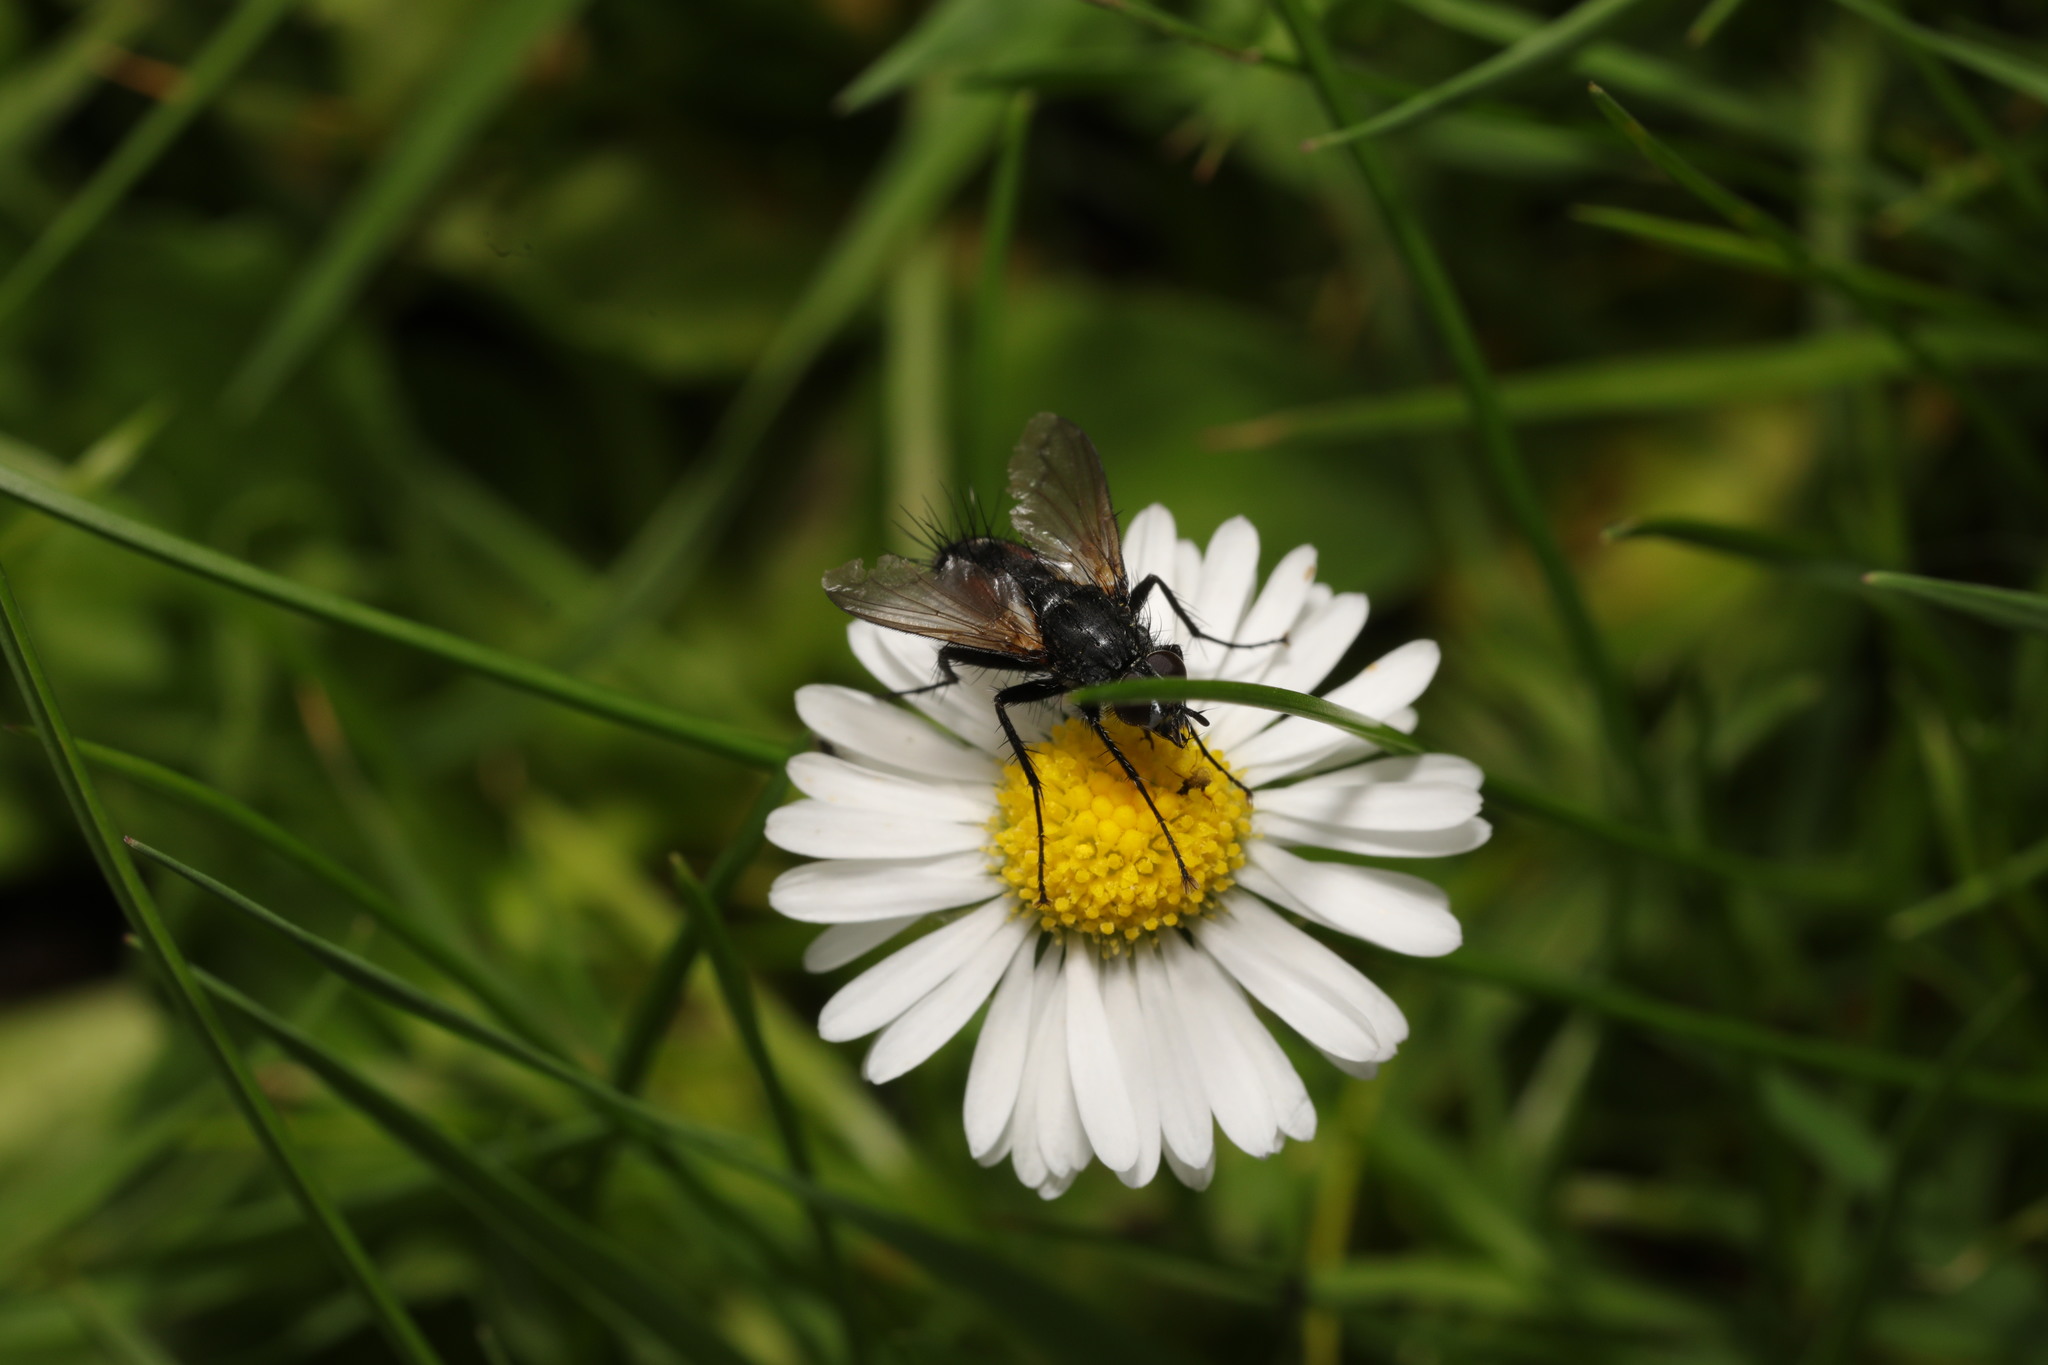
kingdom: Animalia
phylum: Arthropoda
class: Insecta
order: Diptera
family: Tachinidae
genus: Eriothrix
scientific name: Eriothrix rufomaculatus
